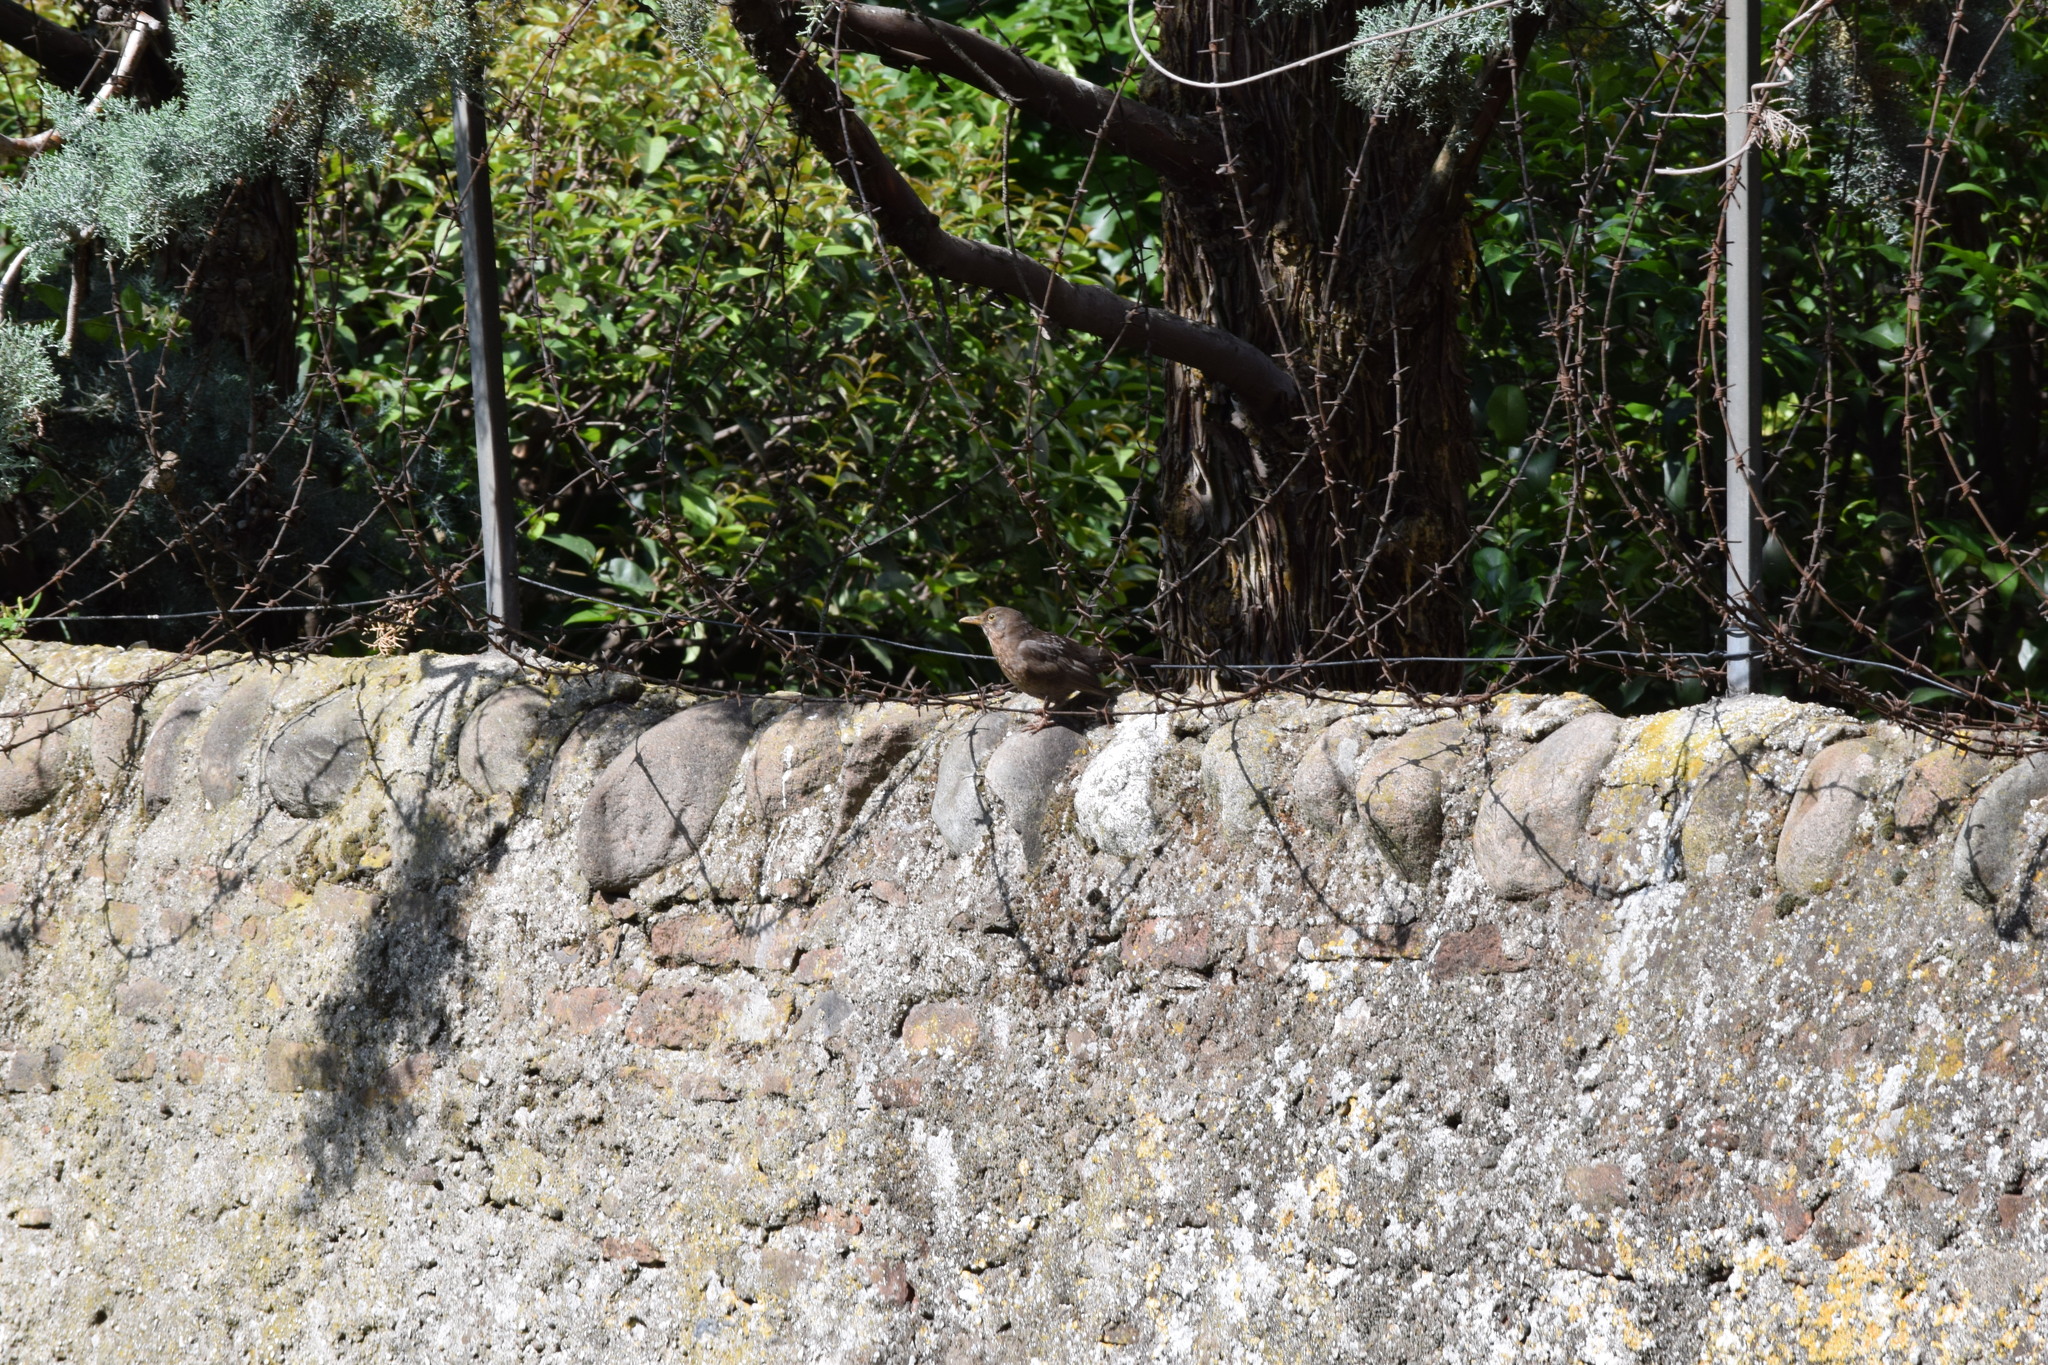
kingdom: Animalia
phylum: Chordata
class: Aves
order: Passeriformes
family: Turdidae
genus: Turdus
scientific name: Turdus merula
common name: Common blackbird
